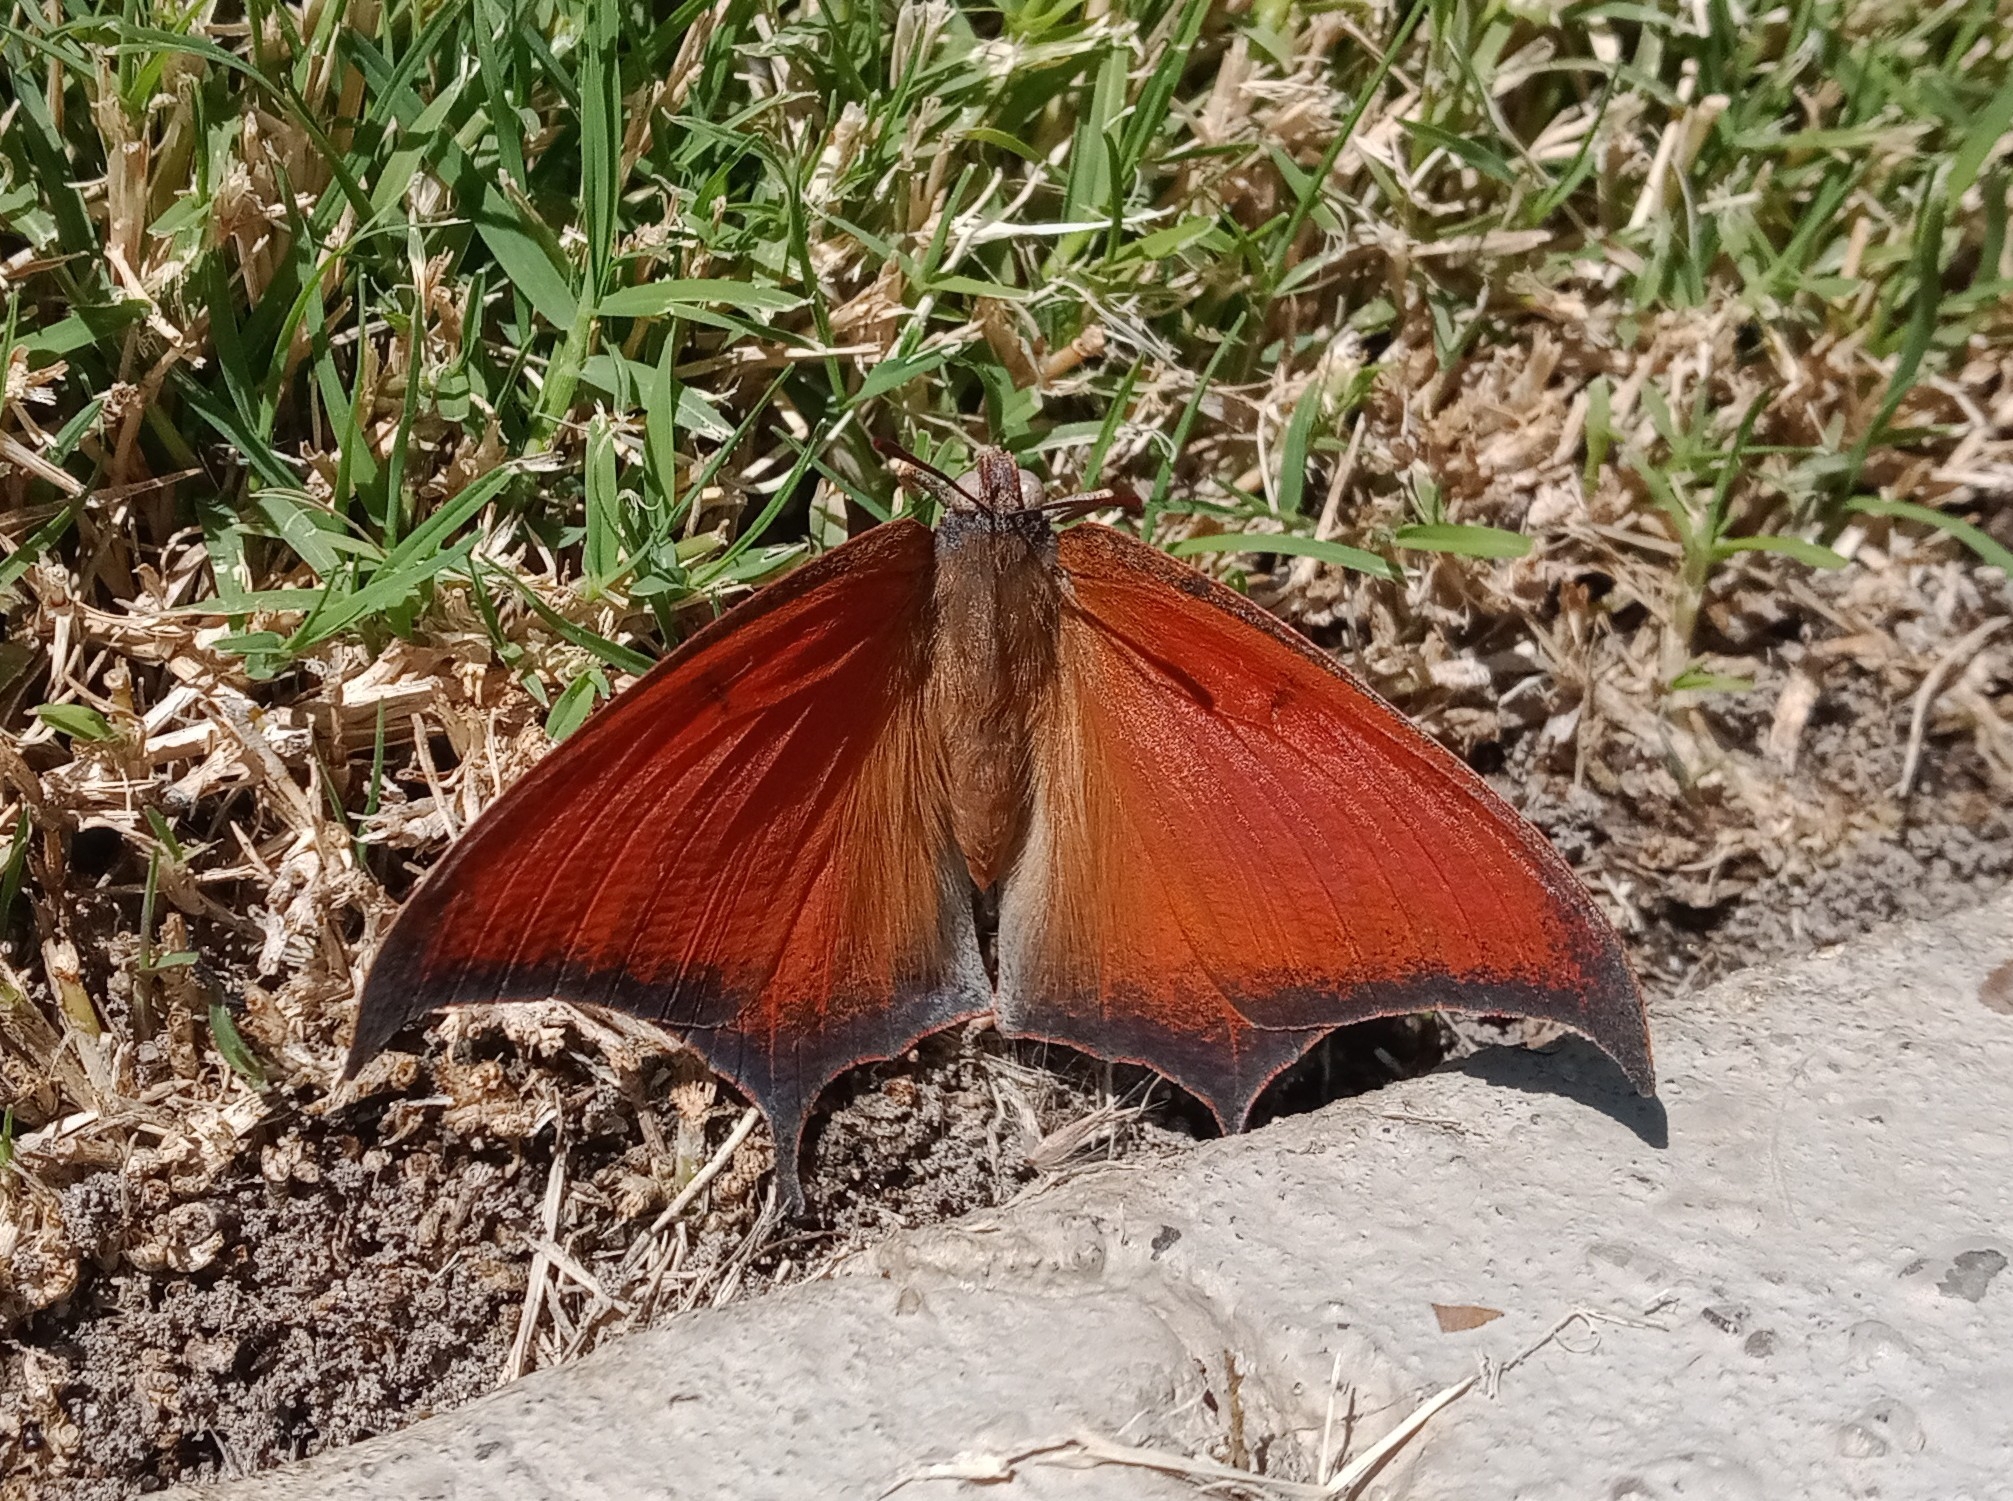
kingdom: Animalia
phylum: Arthropoda
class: Insecta
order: Lepidoptera
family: Nymphalidae
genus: Anaea
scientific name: Anaea andria
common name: Goatweed leafwing
